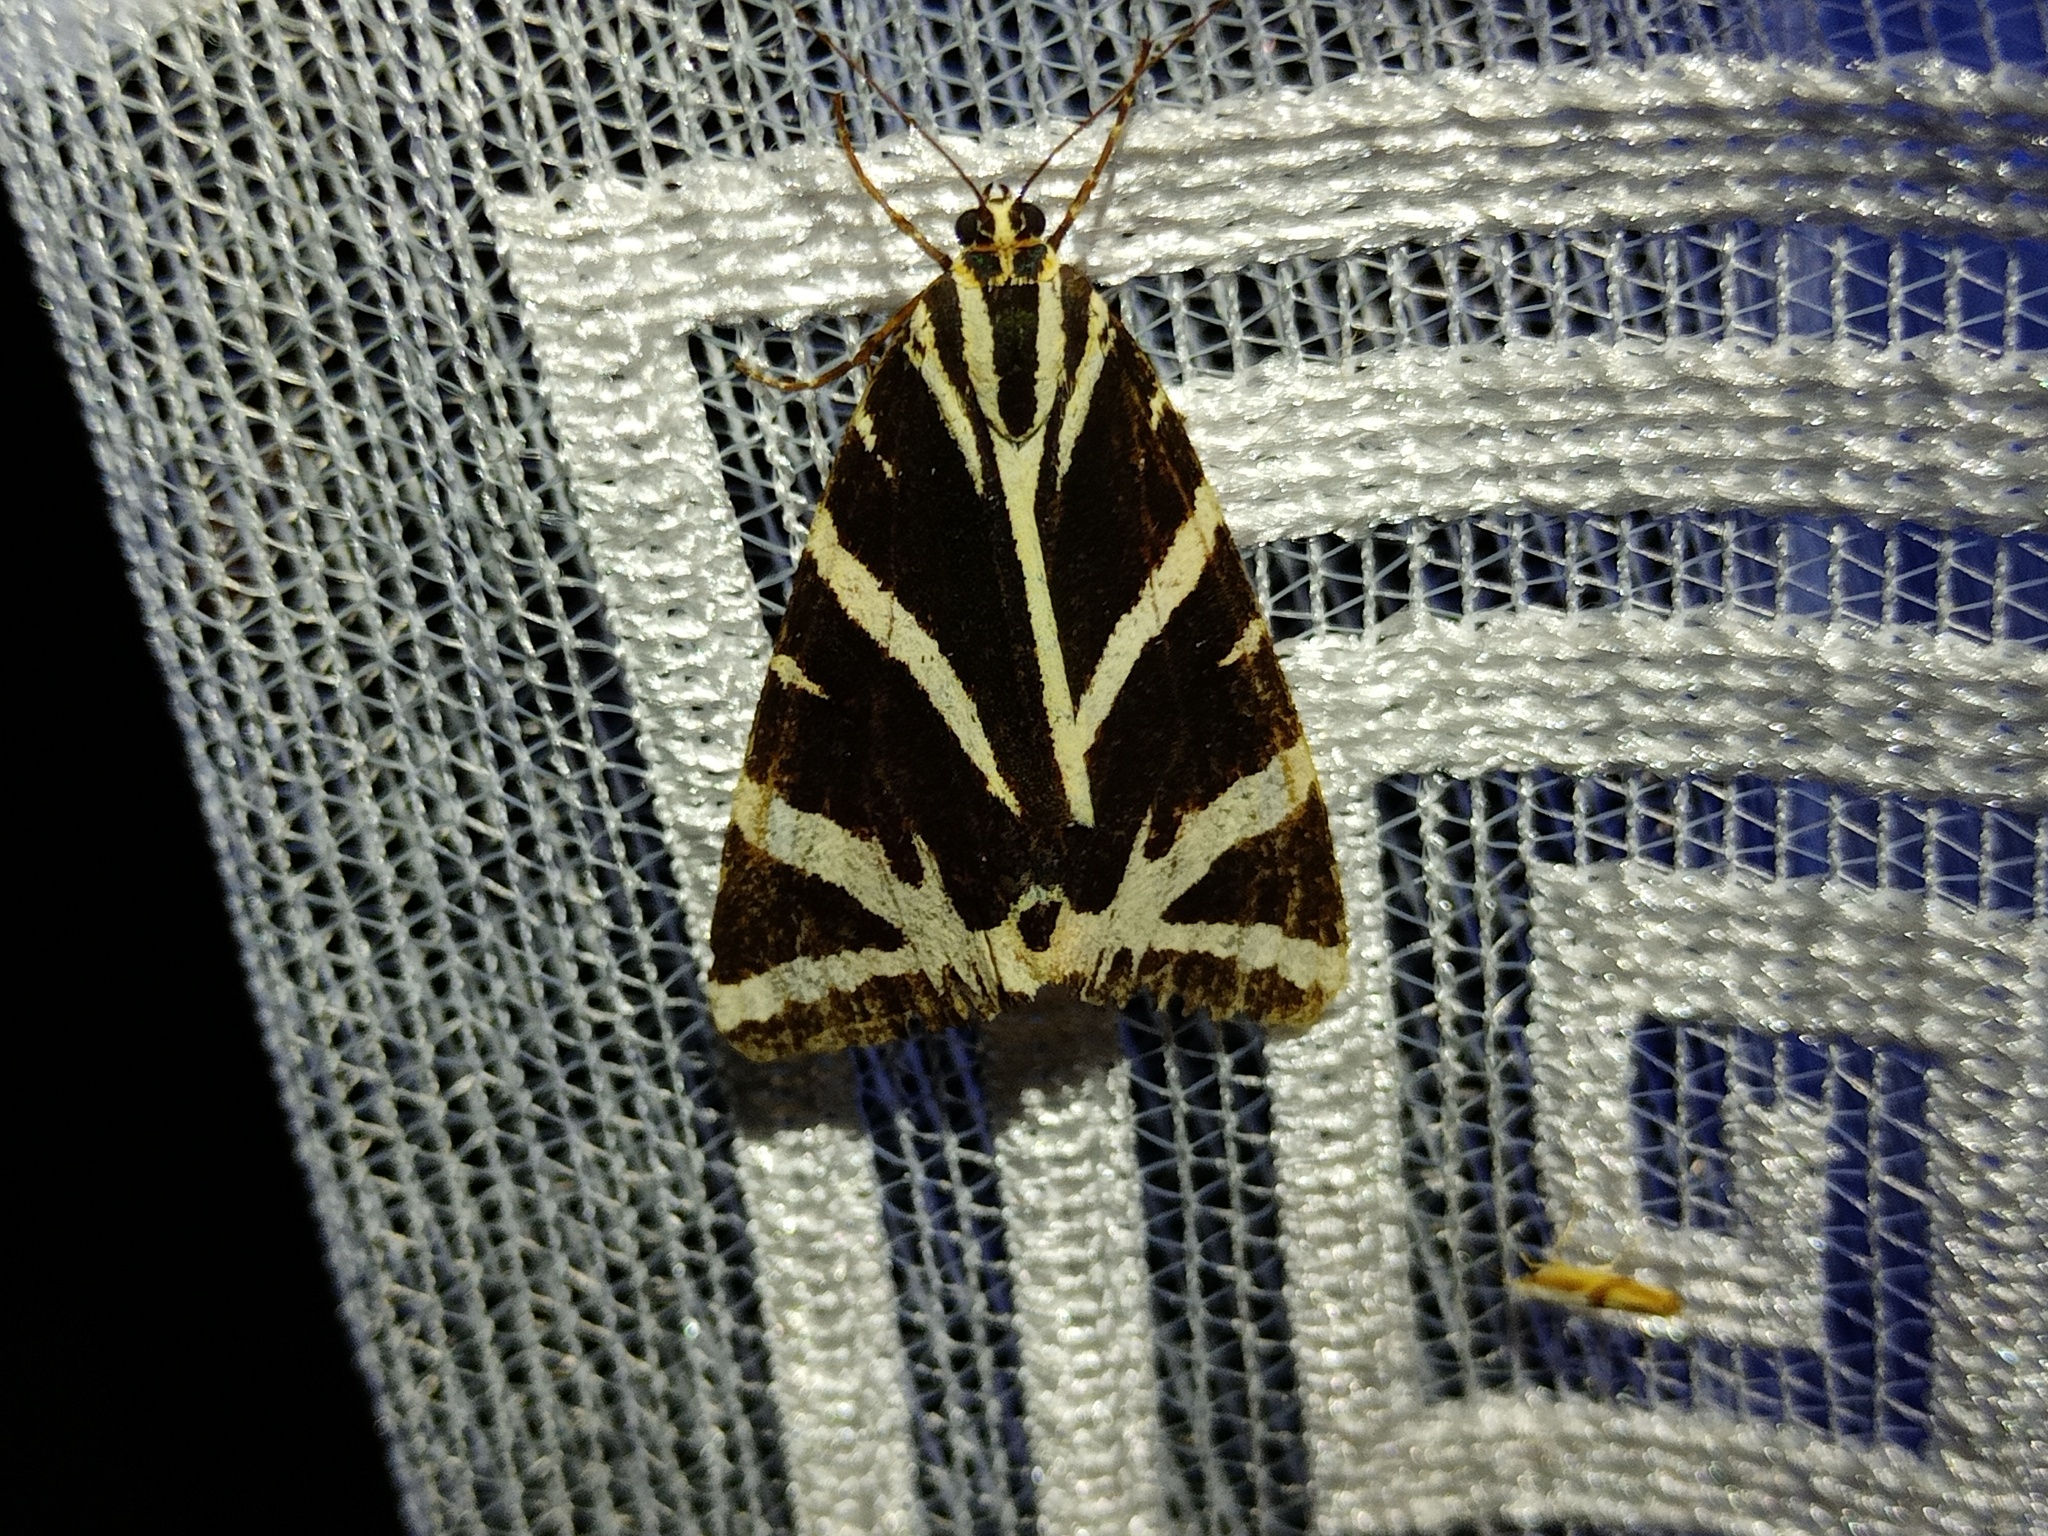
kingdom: Animalia
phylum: Arthropoda
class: Insecta
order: Lepidoptera
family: Erebidae
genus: Euplagia
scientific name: Euplagia quadripunctaria
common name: Jersey tiger
